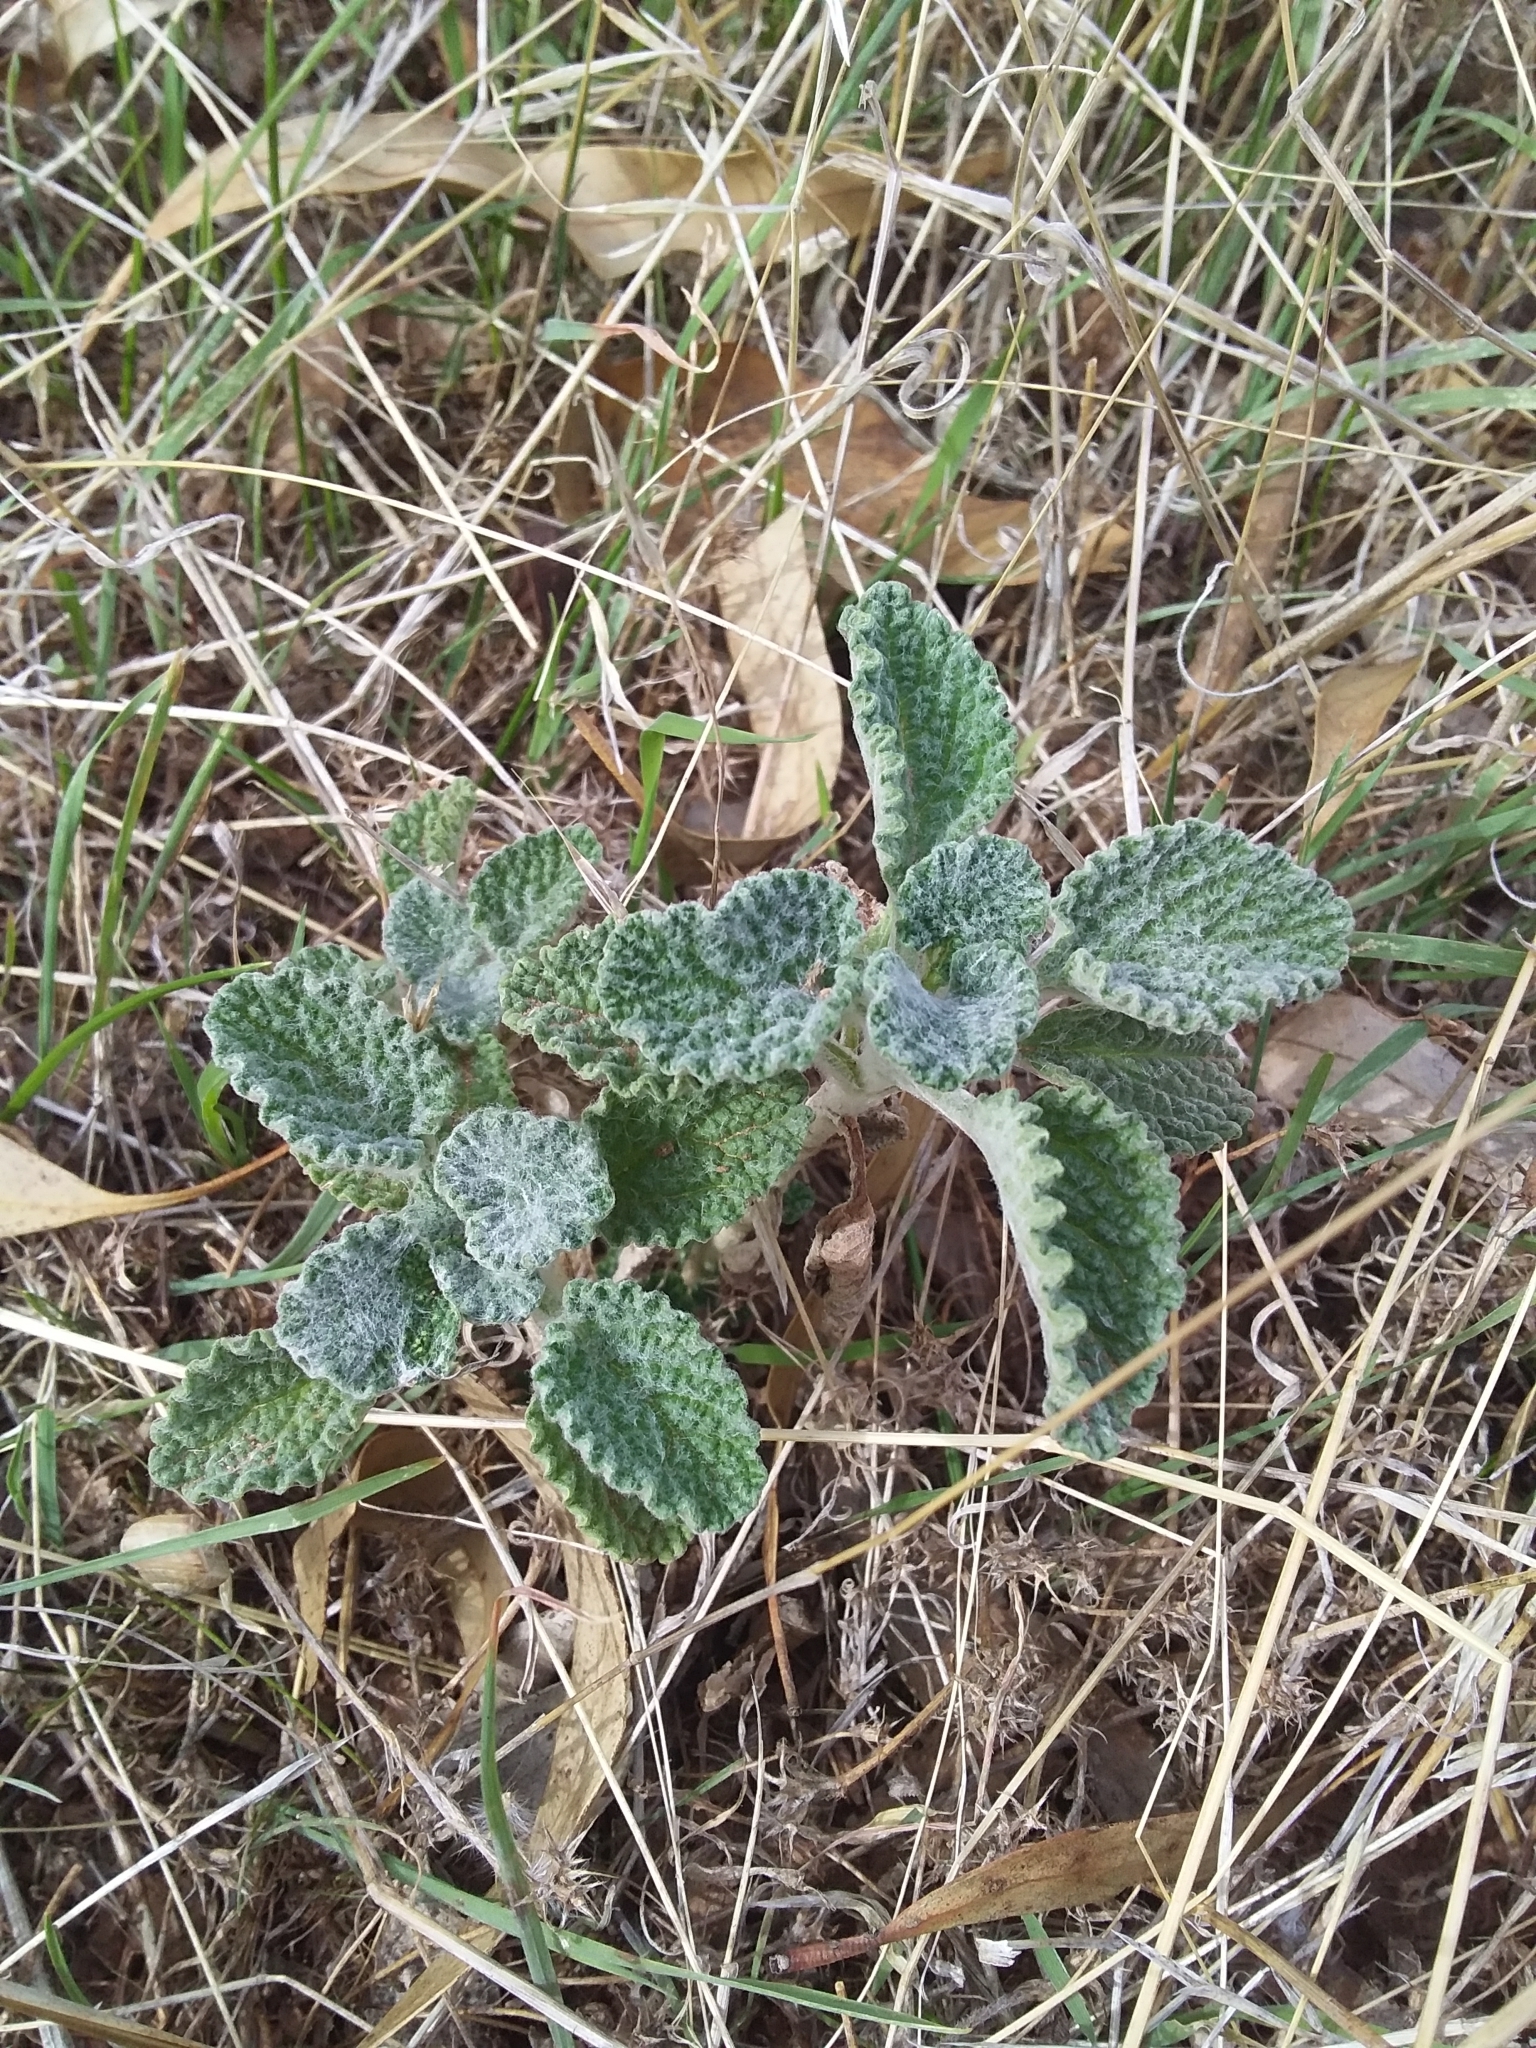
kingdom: Plantae
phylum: Tracheophyta
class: Magnoliopsida
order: Lamiales
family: Lamiaceae
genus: Marrubium
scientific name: Marrubium vulgare
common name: Horehound
